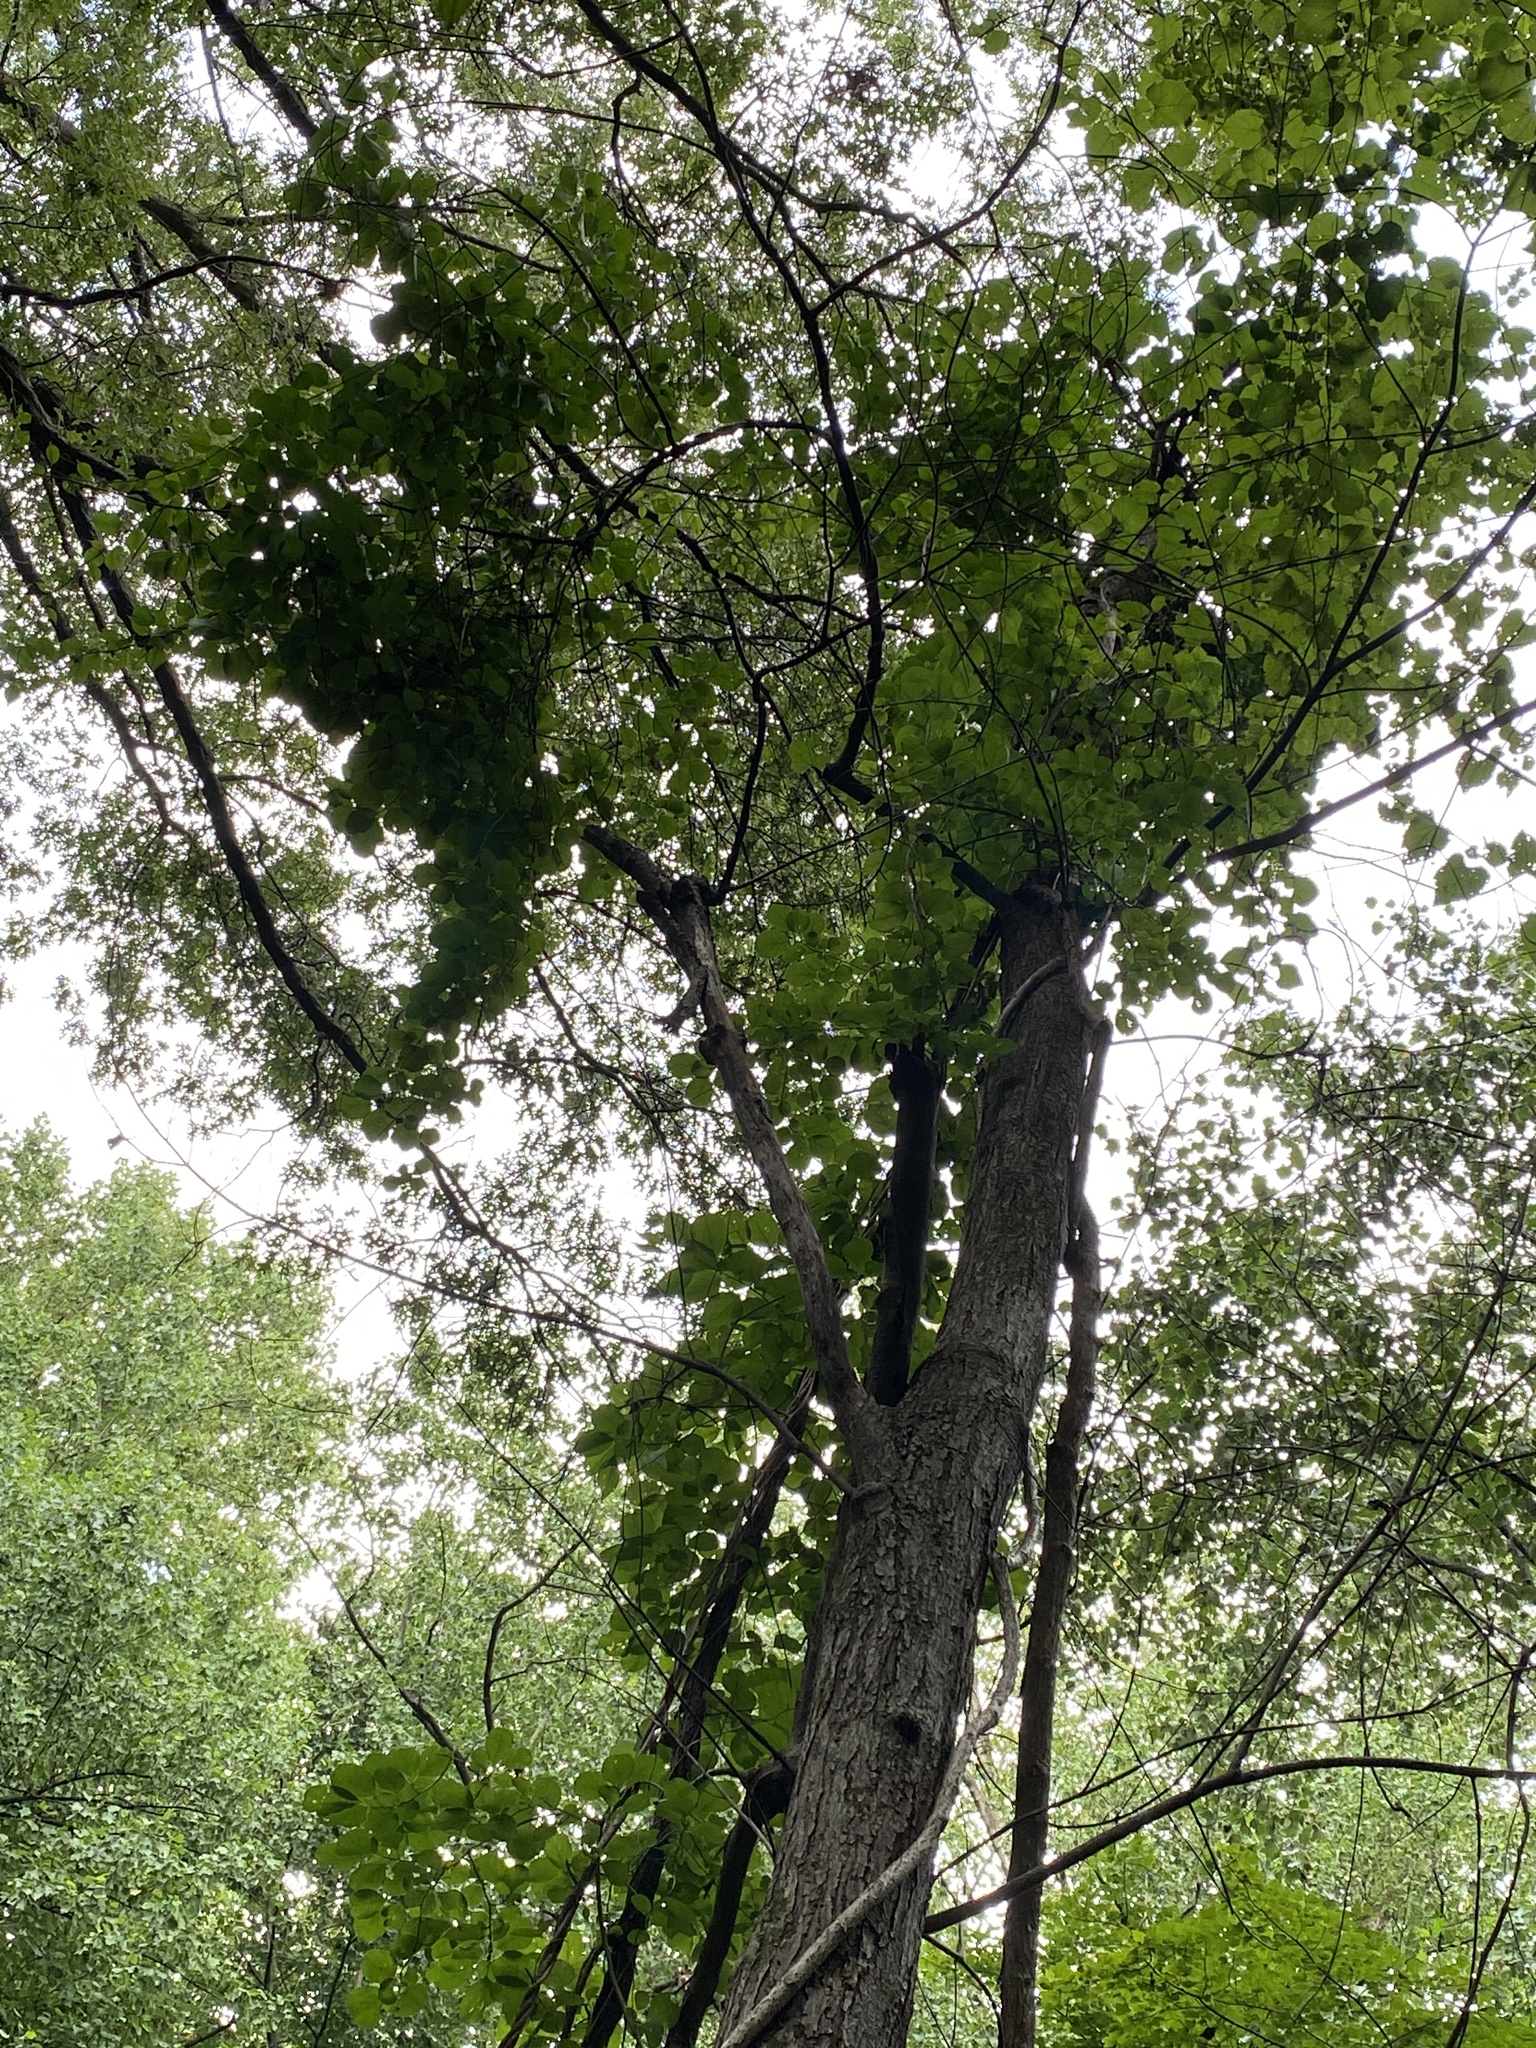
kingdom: Plantae
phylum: Tracheophyta
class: Magnoliopsida
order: Celastrales
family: Celastraceae
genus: Celastrus
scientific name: Celastrus orbiculatus
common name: Oriental bittersweet
